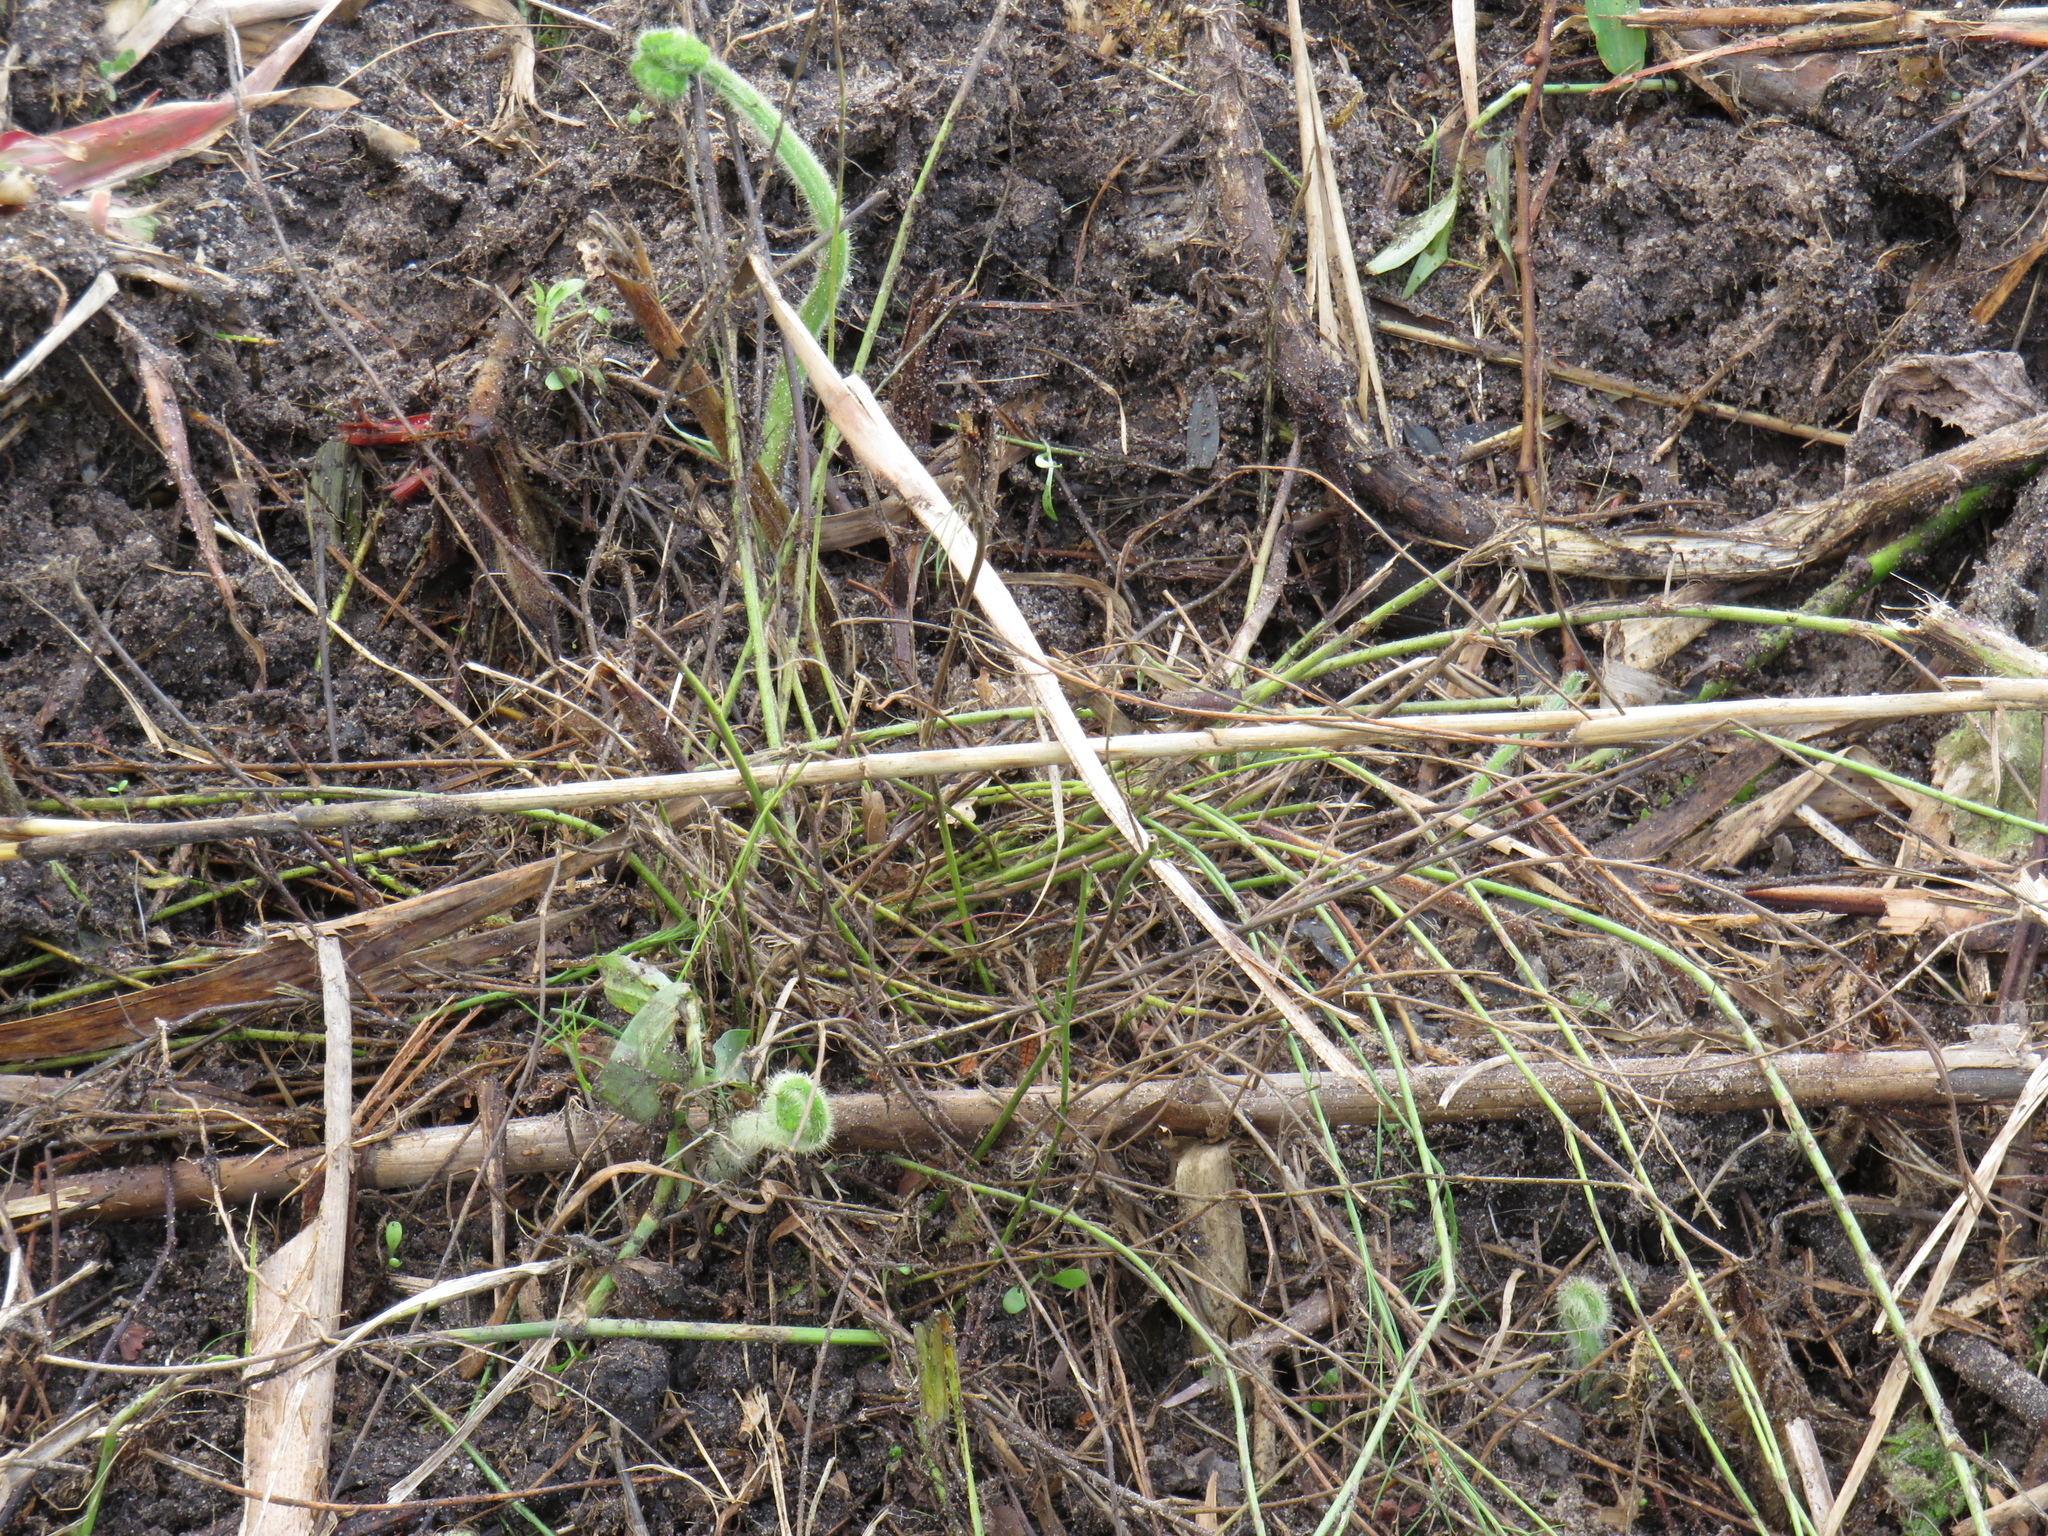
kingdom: Plantae
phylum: Tracheophyta
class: Magnoliopsida
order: Fabales
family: Fabaceae
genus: Psoralea
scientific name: Psoralea fascicularis
